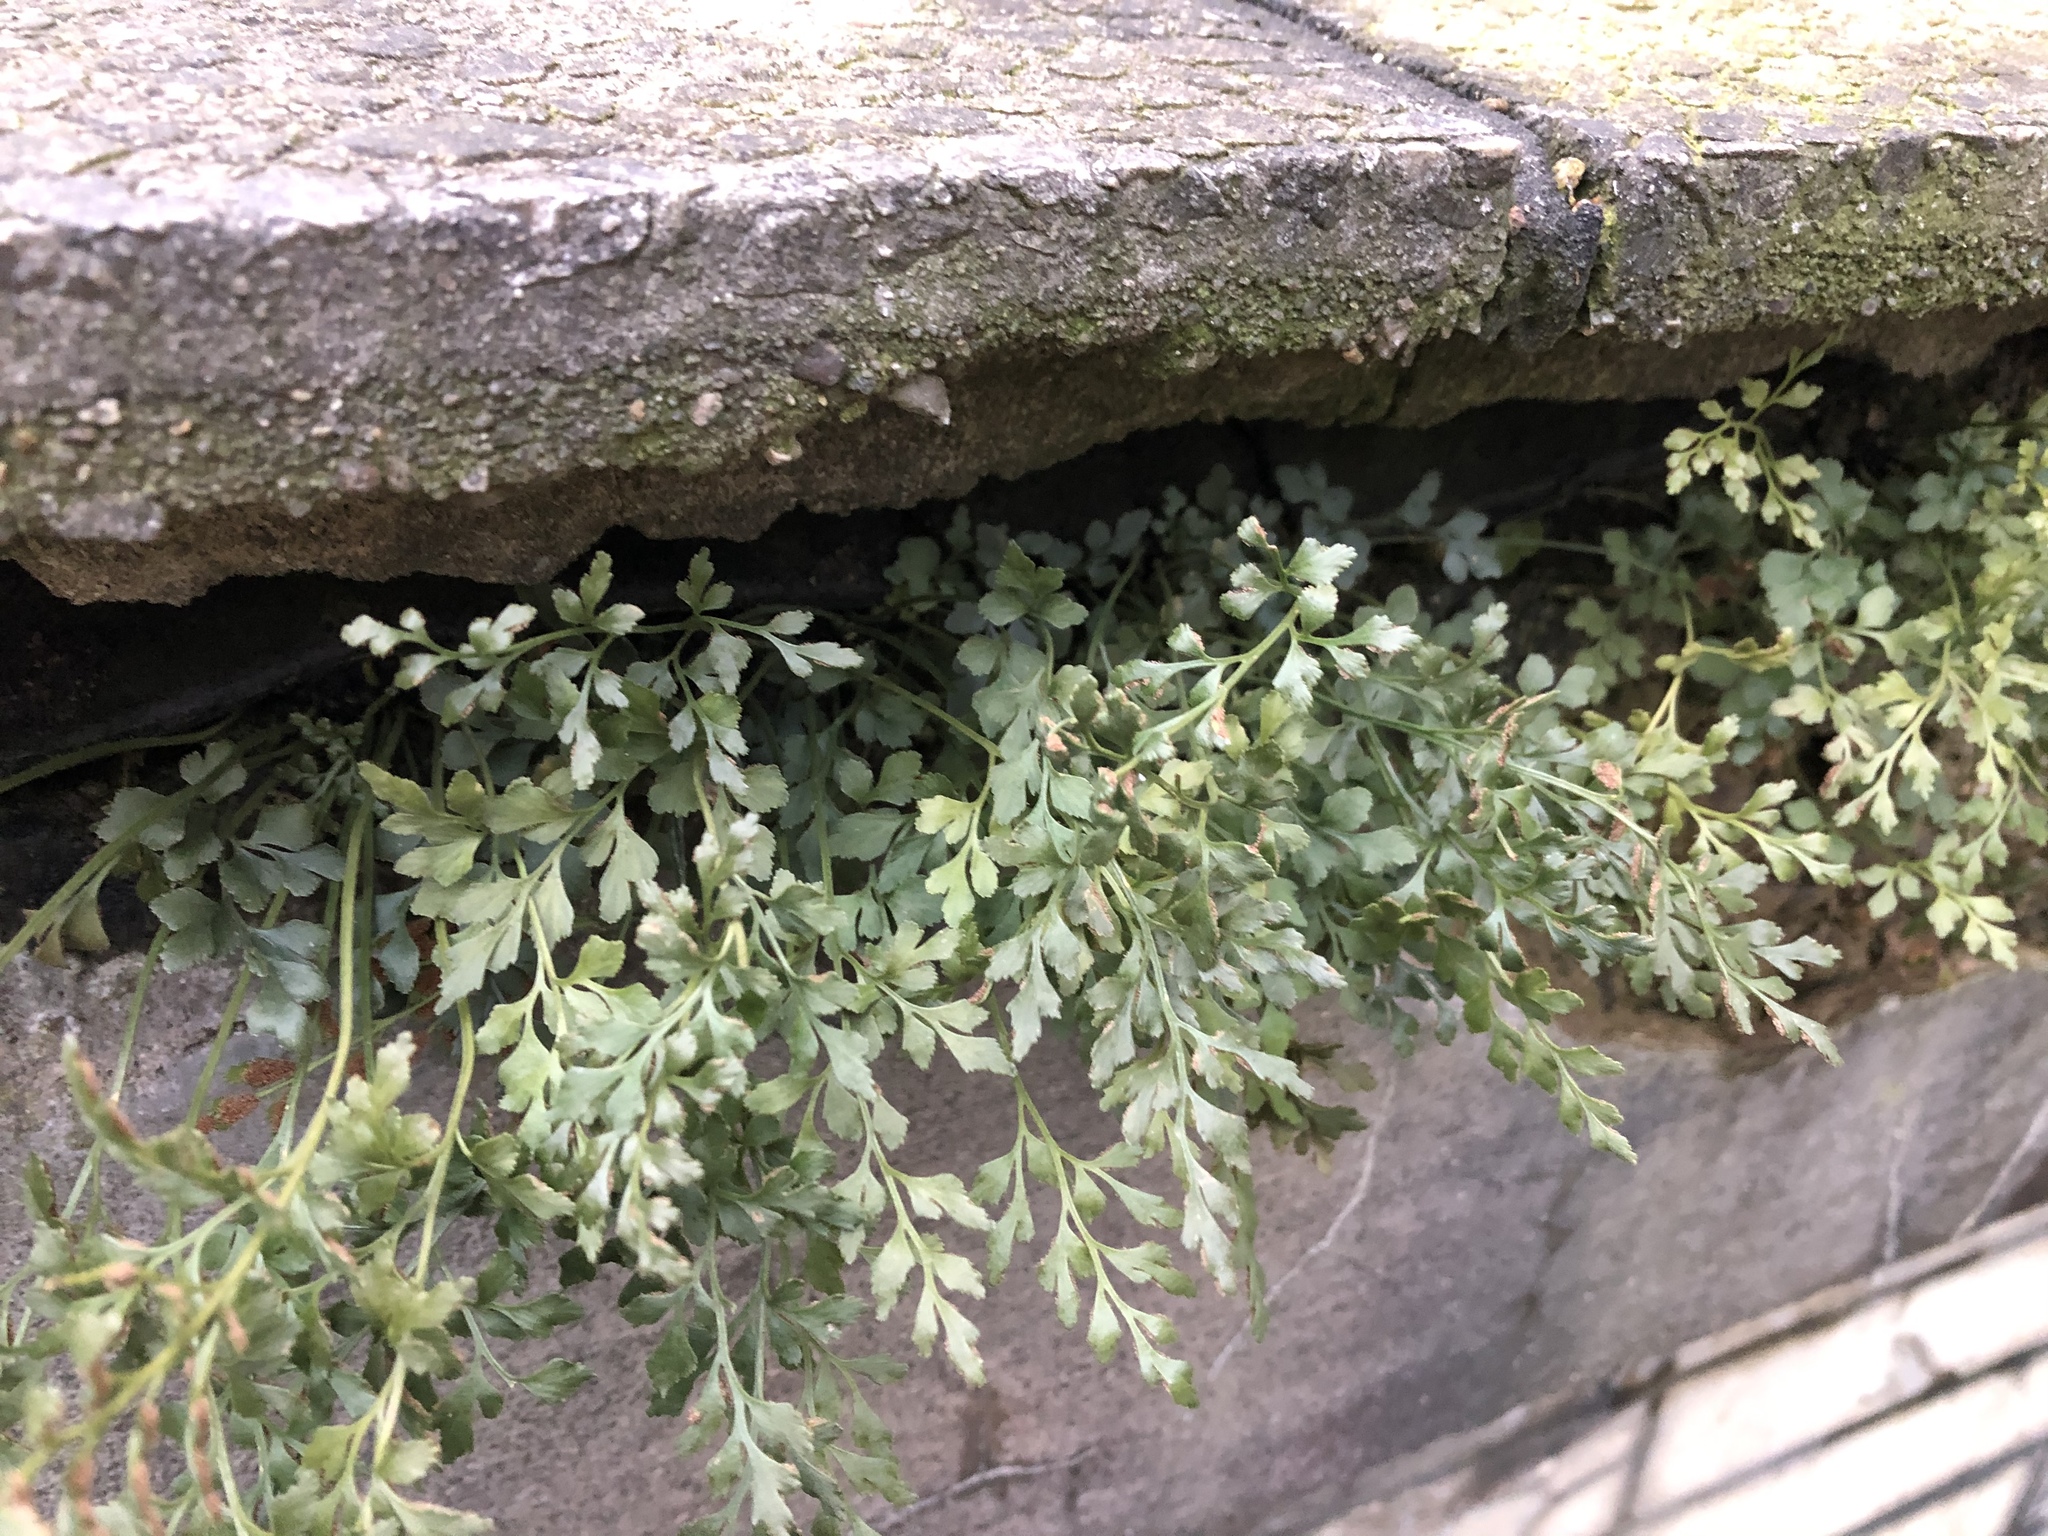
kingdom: Plantae
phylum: Tracheophyta
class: Polypodiopsida
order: Polypodiales
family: Aspleniaceae
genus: Asplenium
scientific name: Asplenium ruta-muraria
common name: Wall-rue
